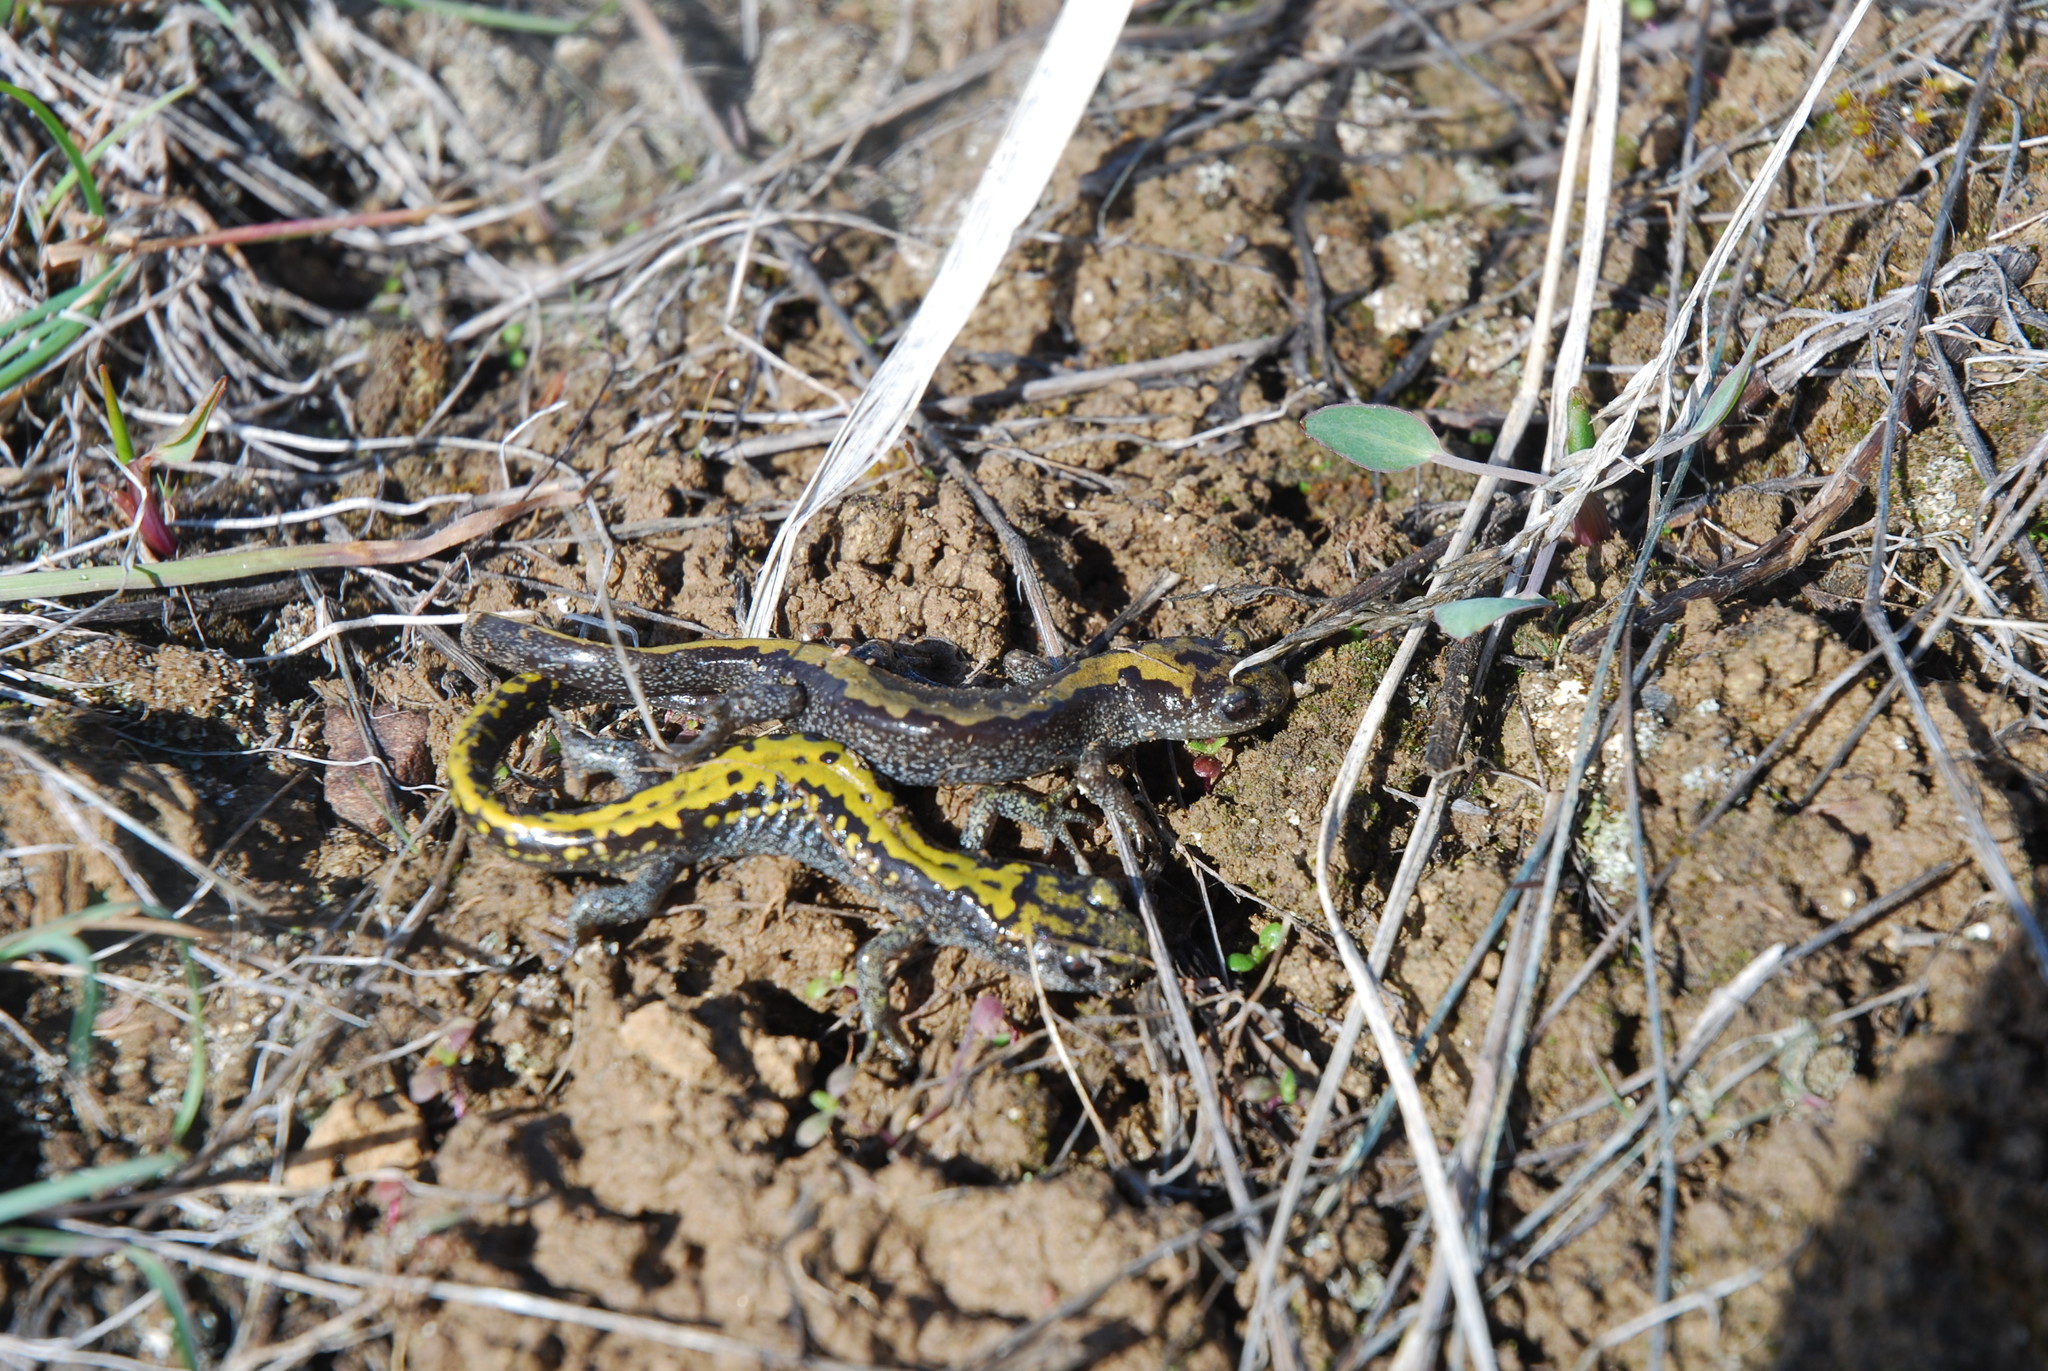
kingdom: Animalia
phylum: Chordata
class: Amphibia
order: Caudata
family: Ambystomatidae
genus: Ambystoma
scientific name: Ambystoma macrodactylum
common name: Long-toed salamander
